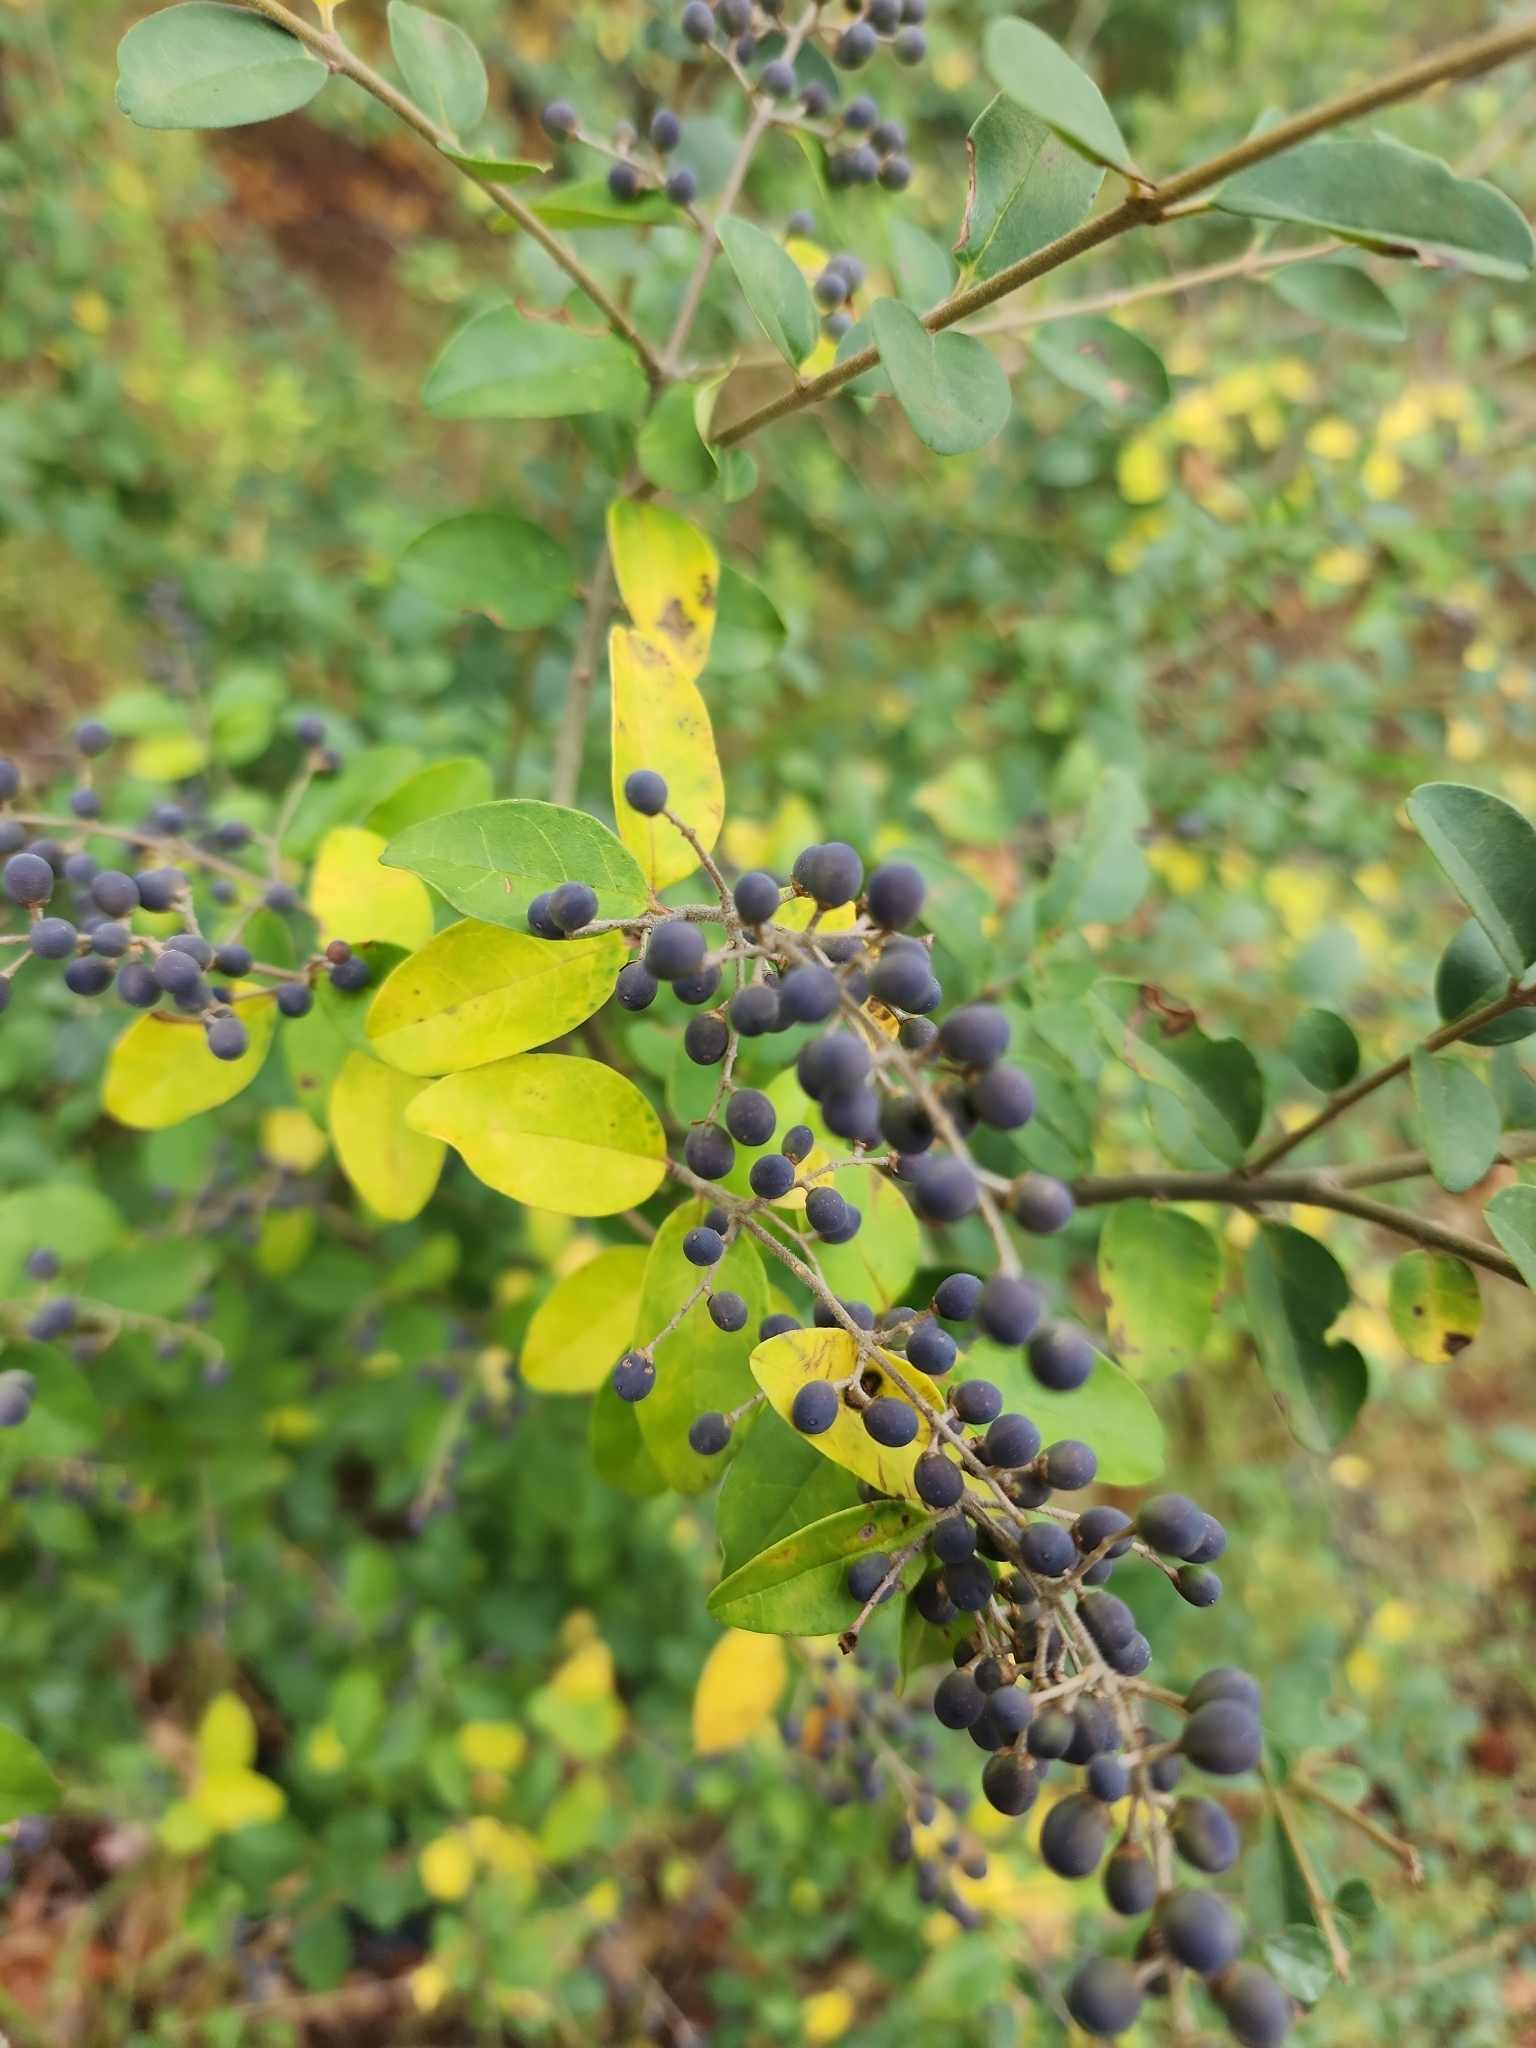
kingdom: Plantae
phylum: Tracheophyta
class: Magnoliopsida
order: Lamiales
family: Oleaceae
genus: Ligustrum
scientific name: Ligustrum sinense
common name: Chinese privet
